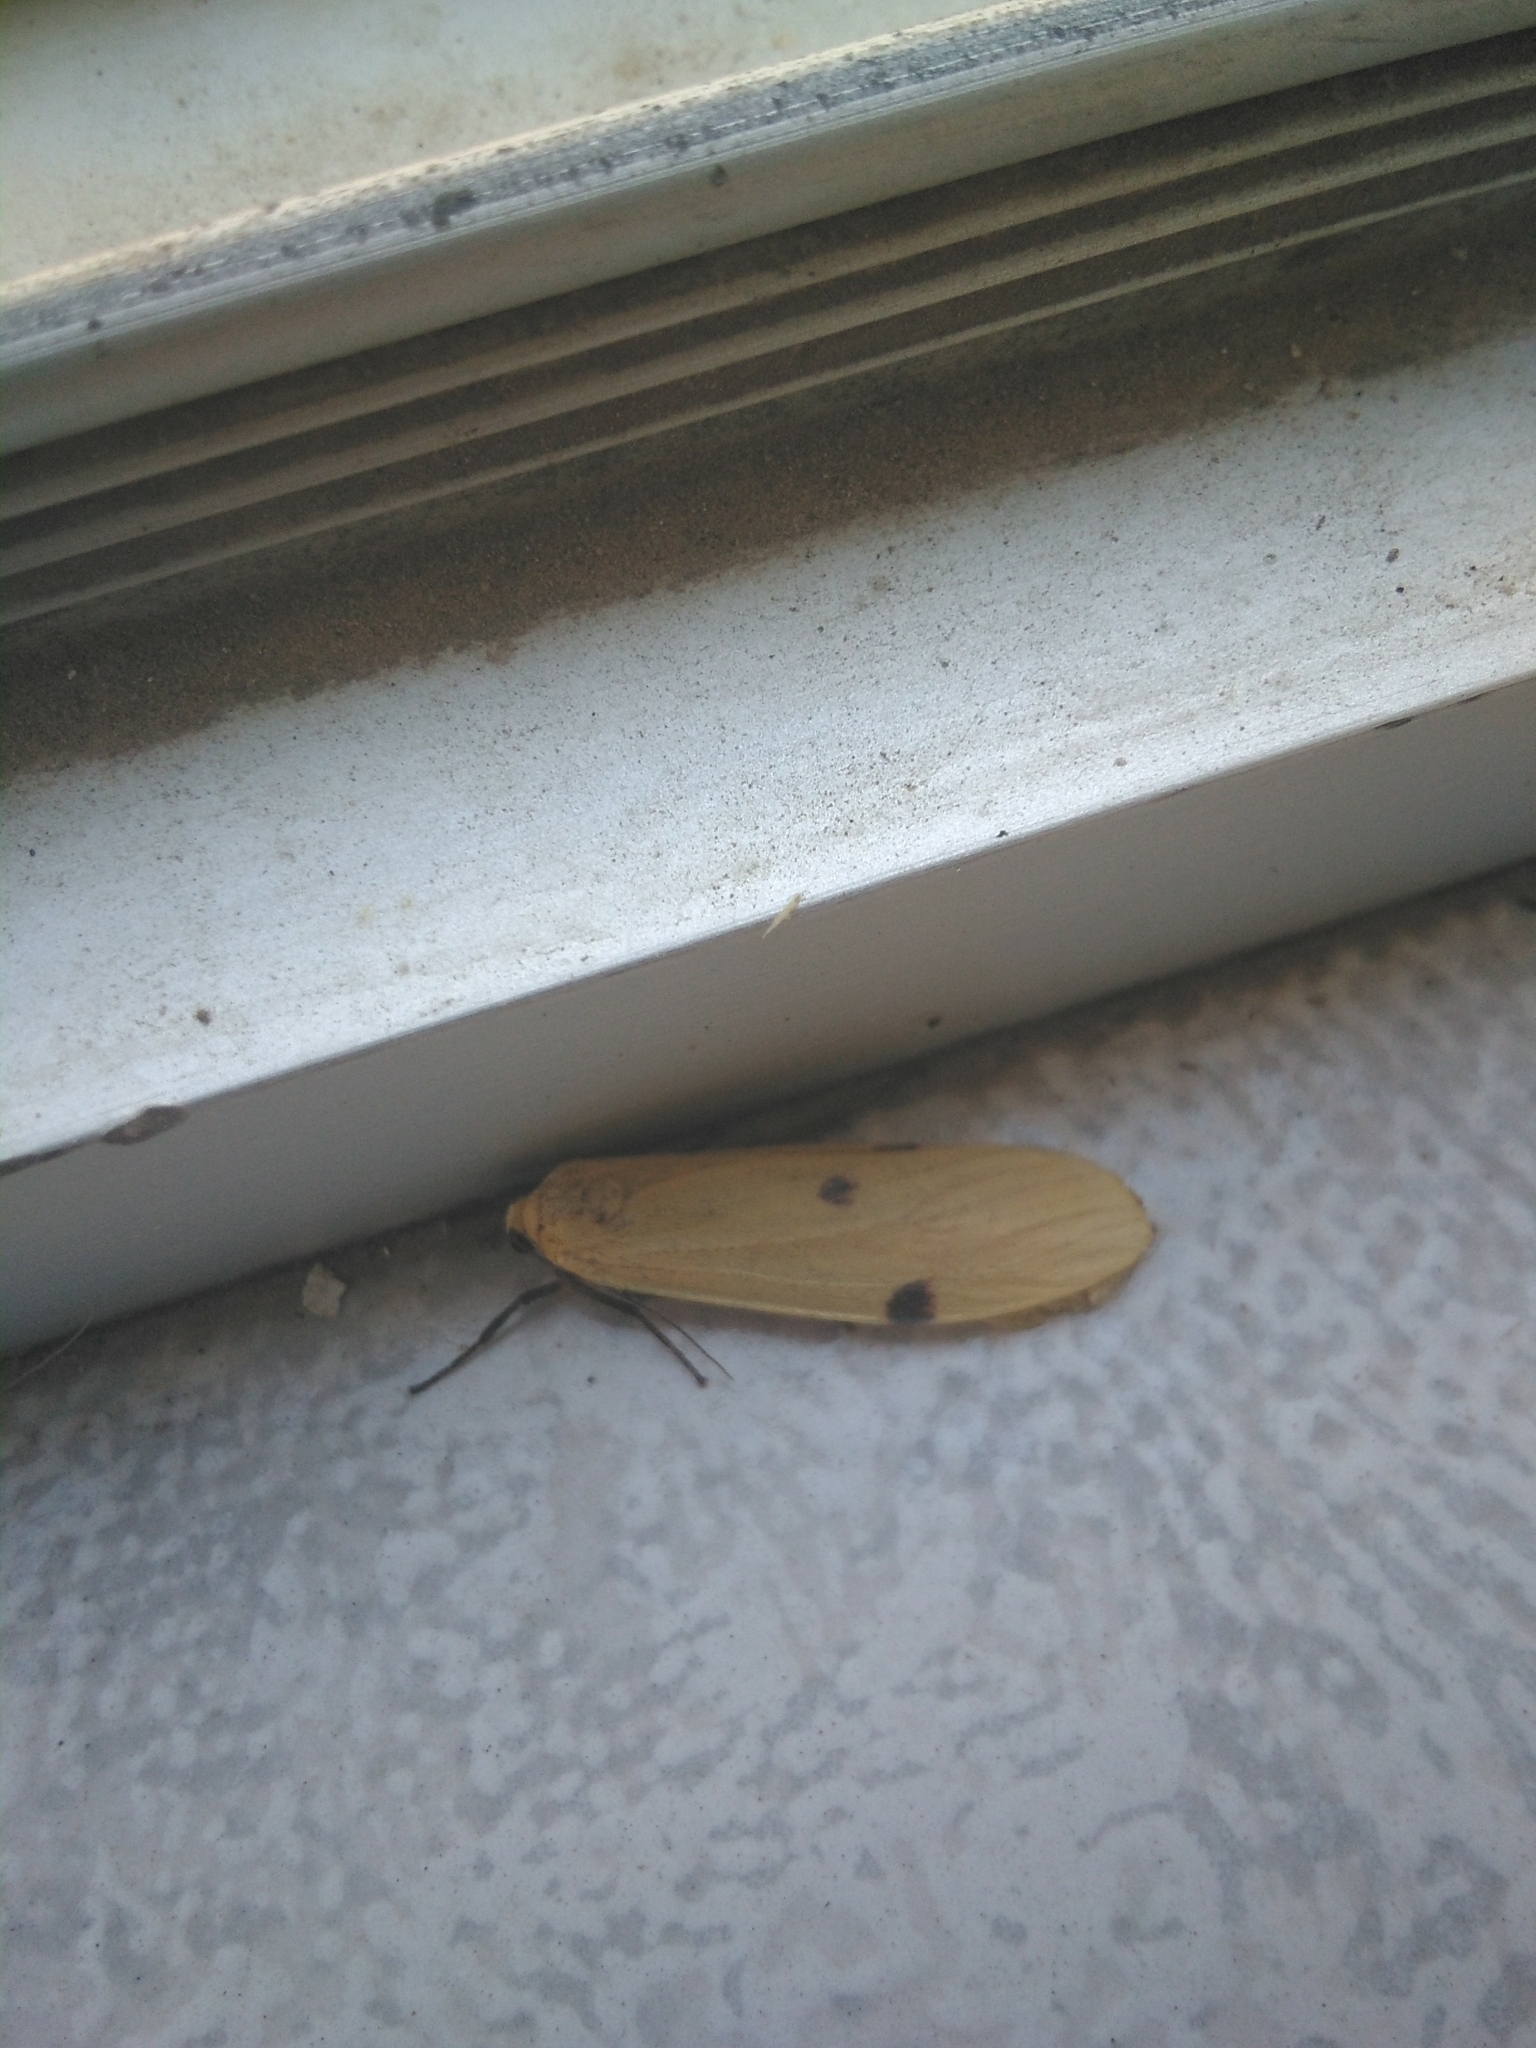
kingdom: Animalia
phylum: Arthropoda
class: Insecta
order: Lepidoptera
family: Erebidae
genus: Lithosia
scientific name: Lithosia quadra
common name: Four-spotted footman
